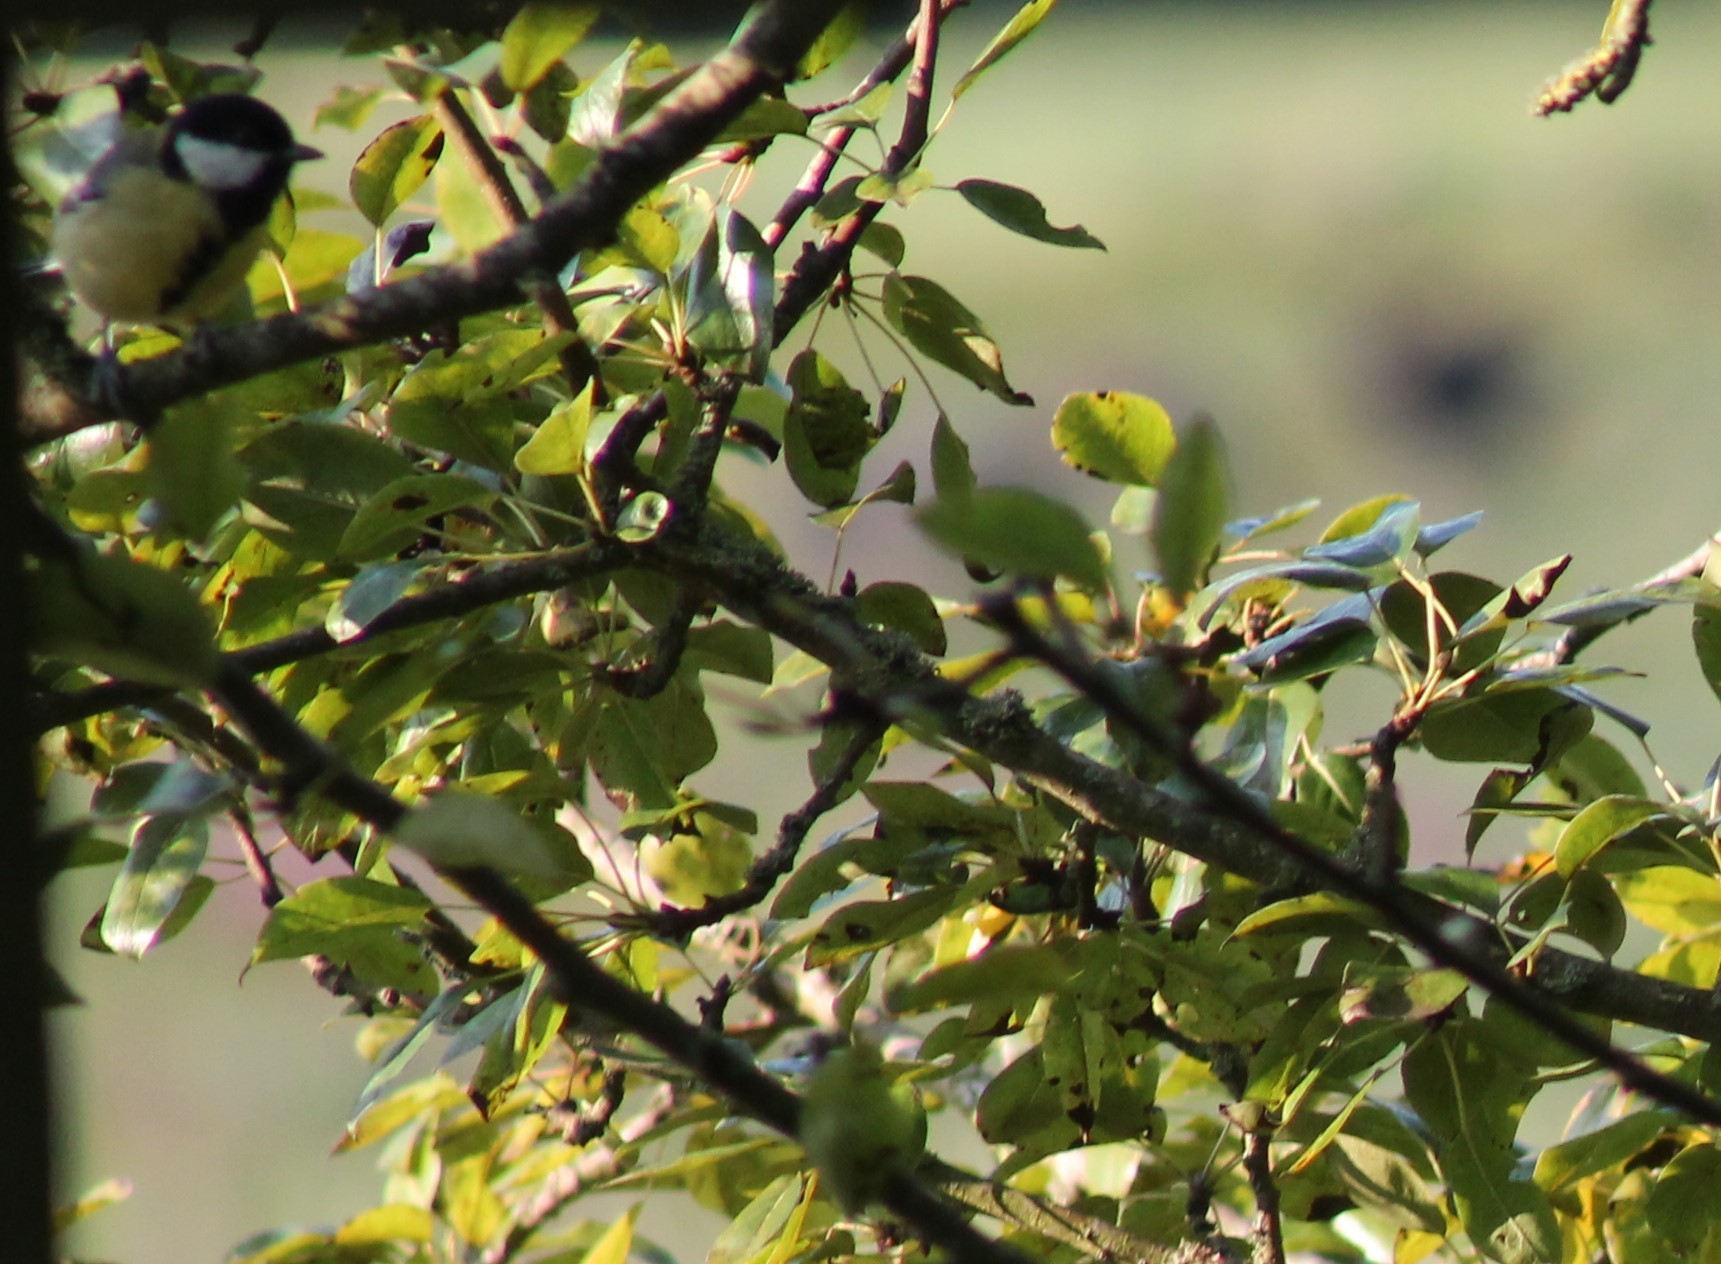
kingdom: Animalia
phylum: Chordata
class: Aves
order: Passeriformes
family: Paridae
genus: Parus
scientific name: Parus major
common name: Great tit
